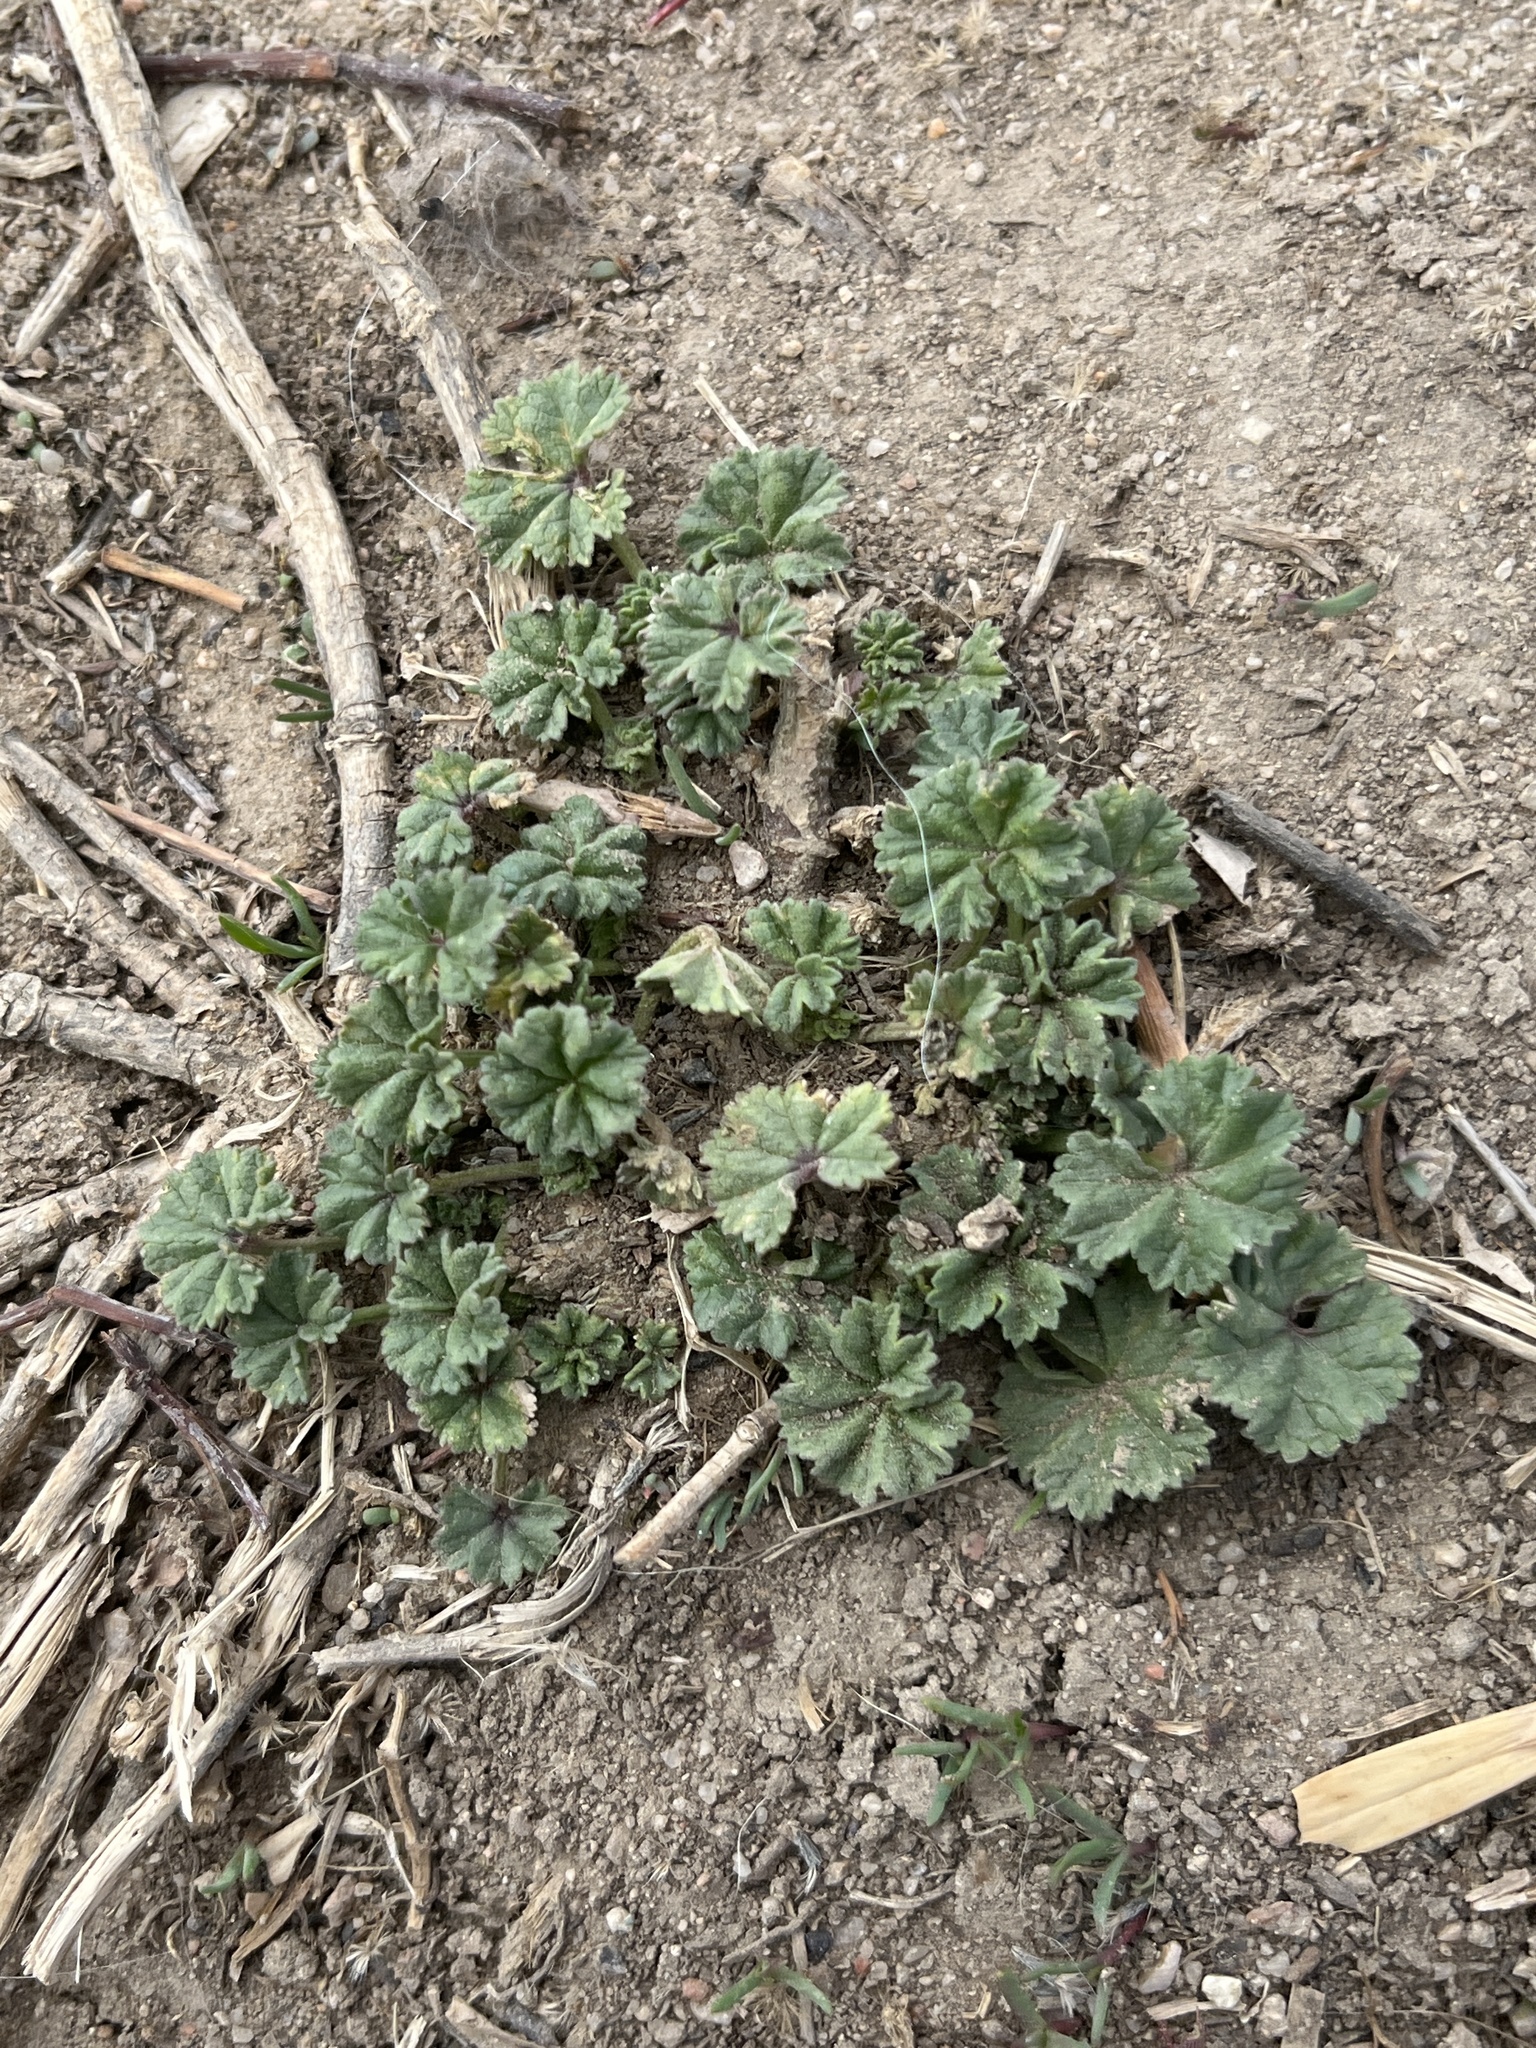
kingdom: Plantae
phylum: Tracheophyta
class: Magnoliopsida
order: Malvales
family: Malvaceae
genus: Malva
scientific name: Malva neglecta
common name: Common mallow
